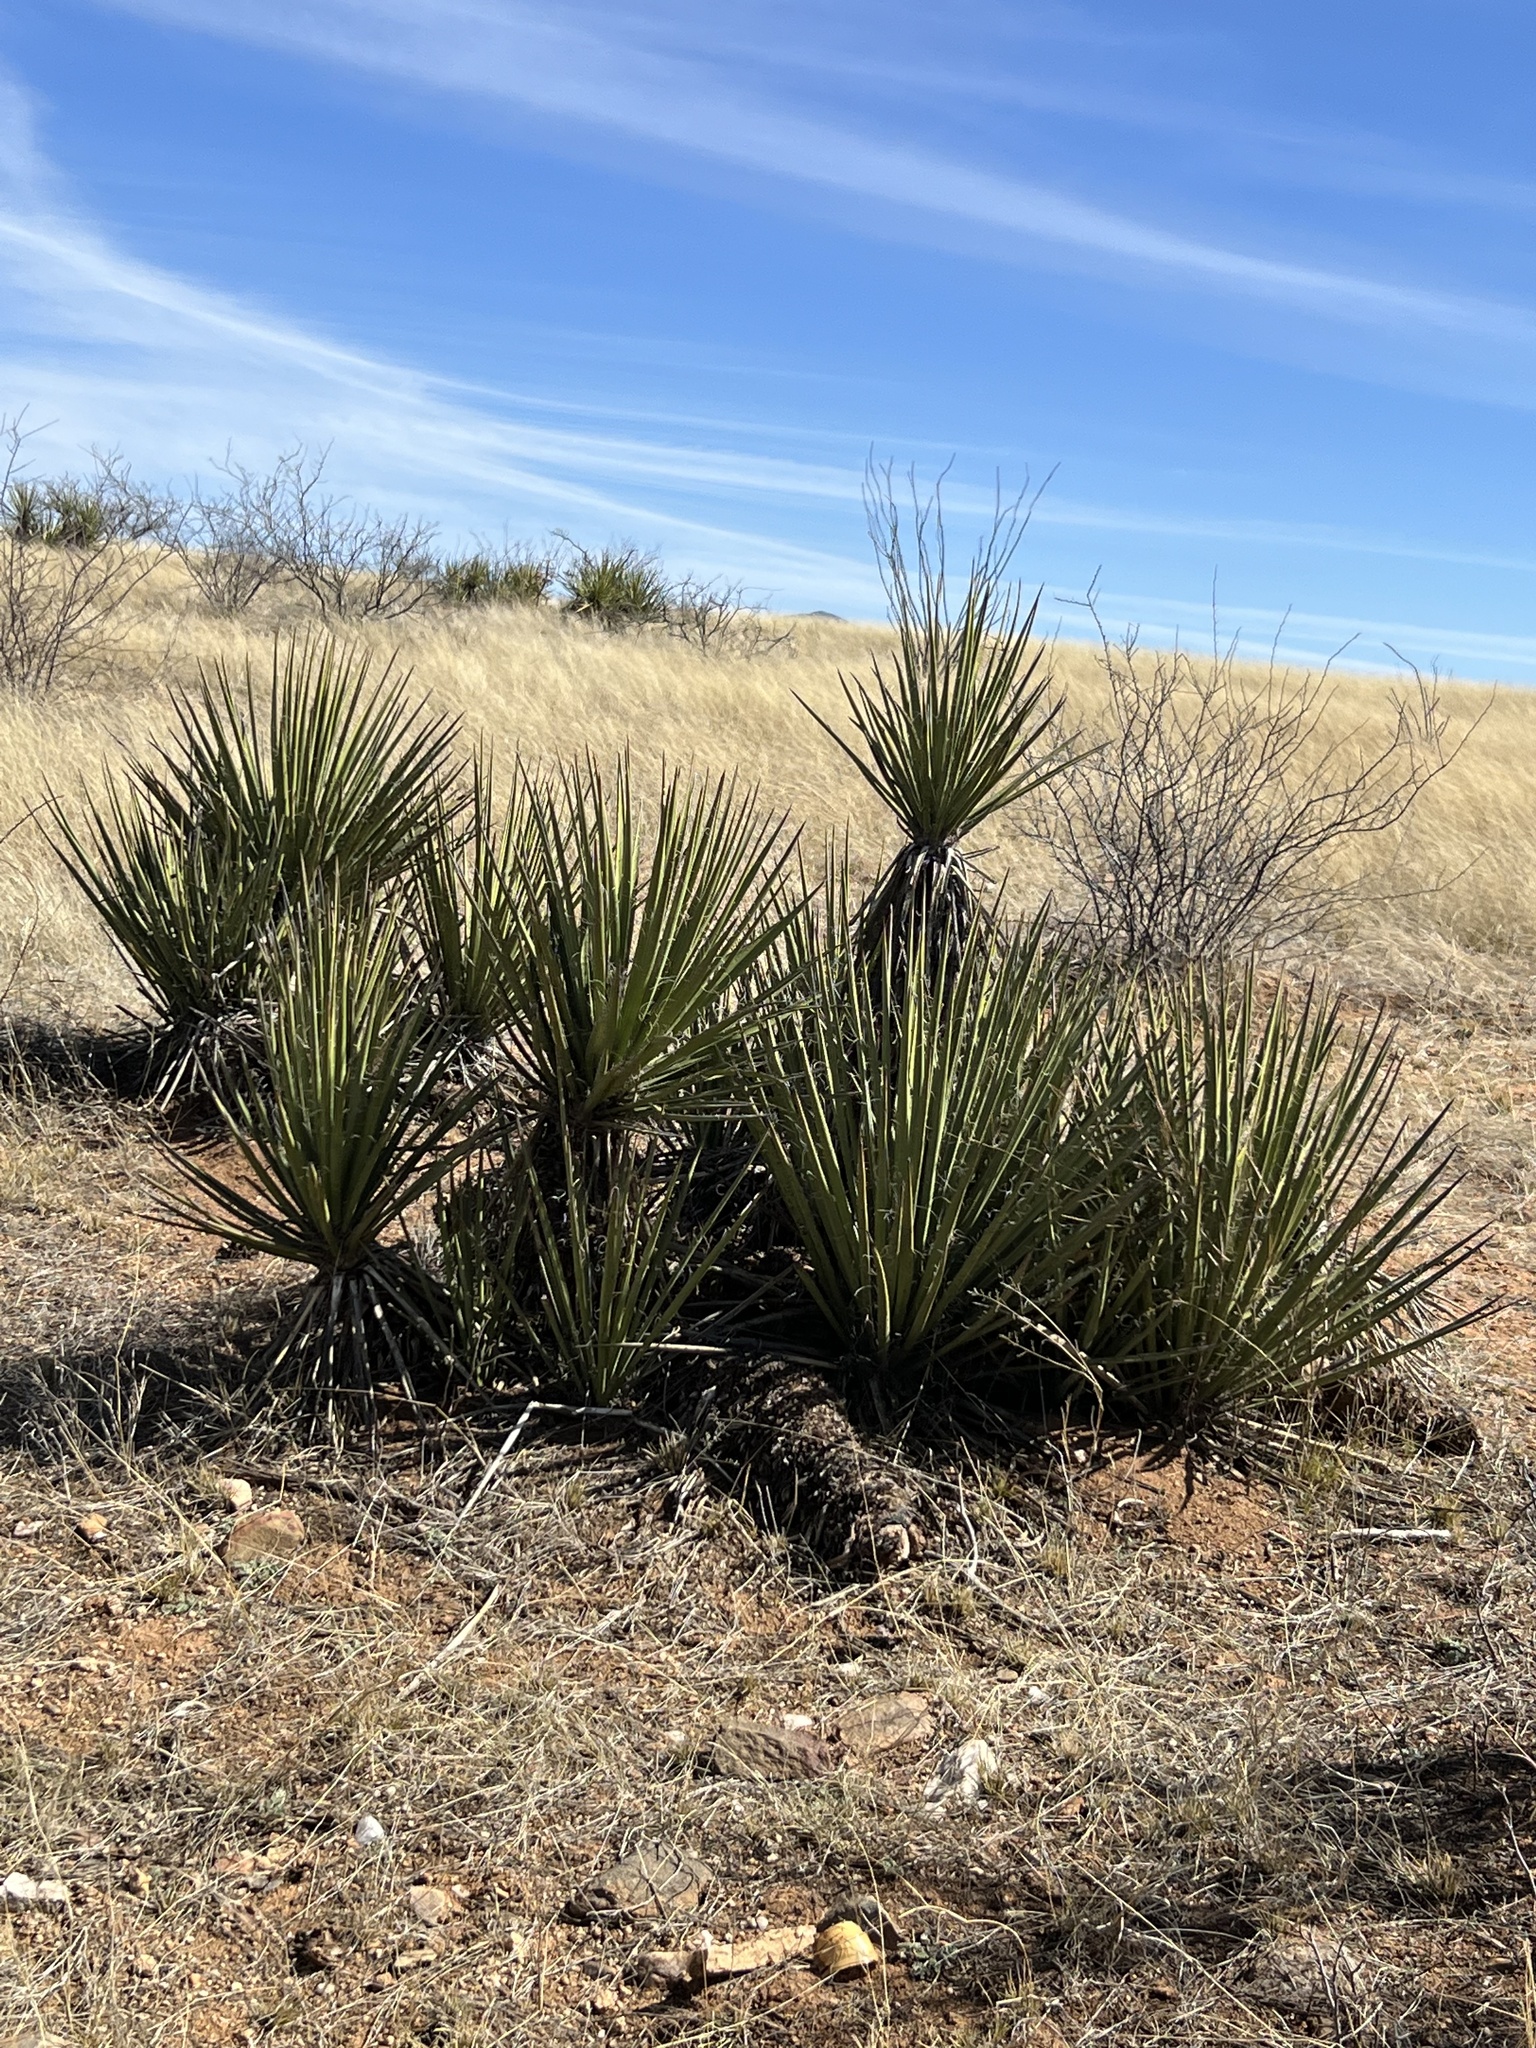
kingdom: Plantae
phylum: Tracheophyta
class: Liliopsida
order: Asparagales
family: Asparagaceae
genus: Yucca
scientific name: Yucca baccata
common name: Banana yucca
